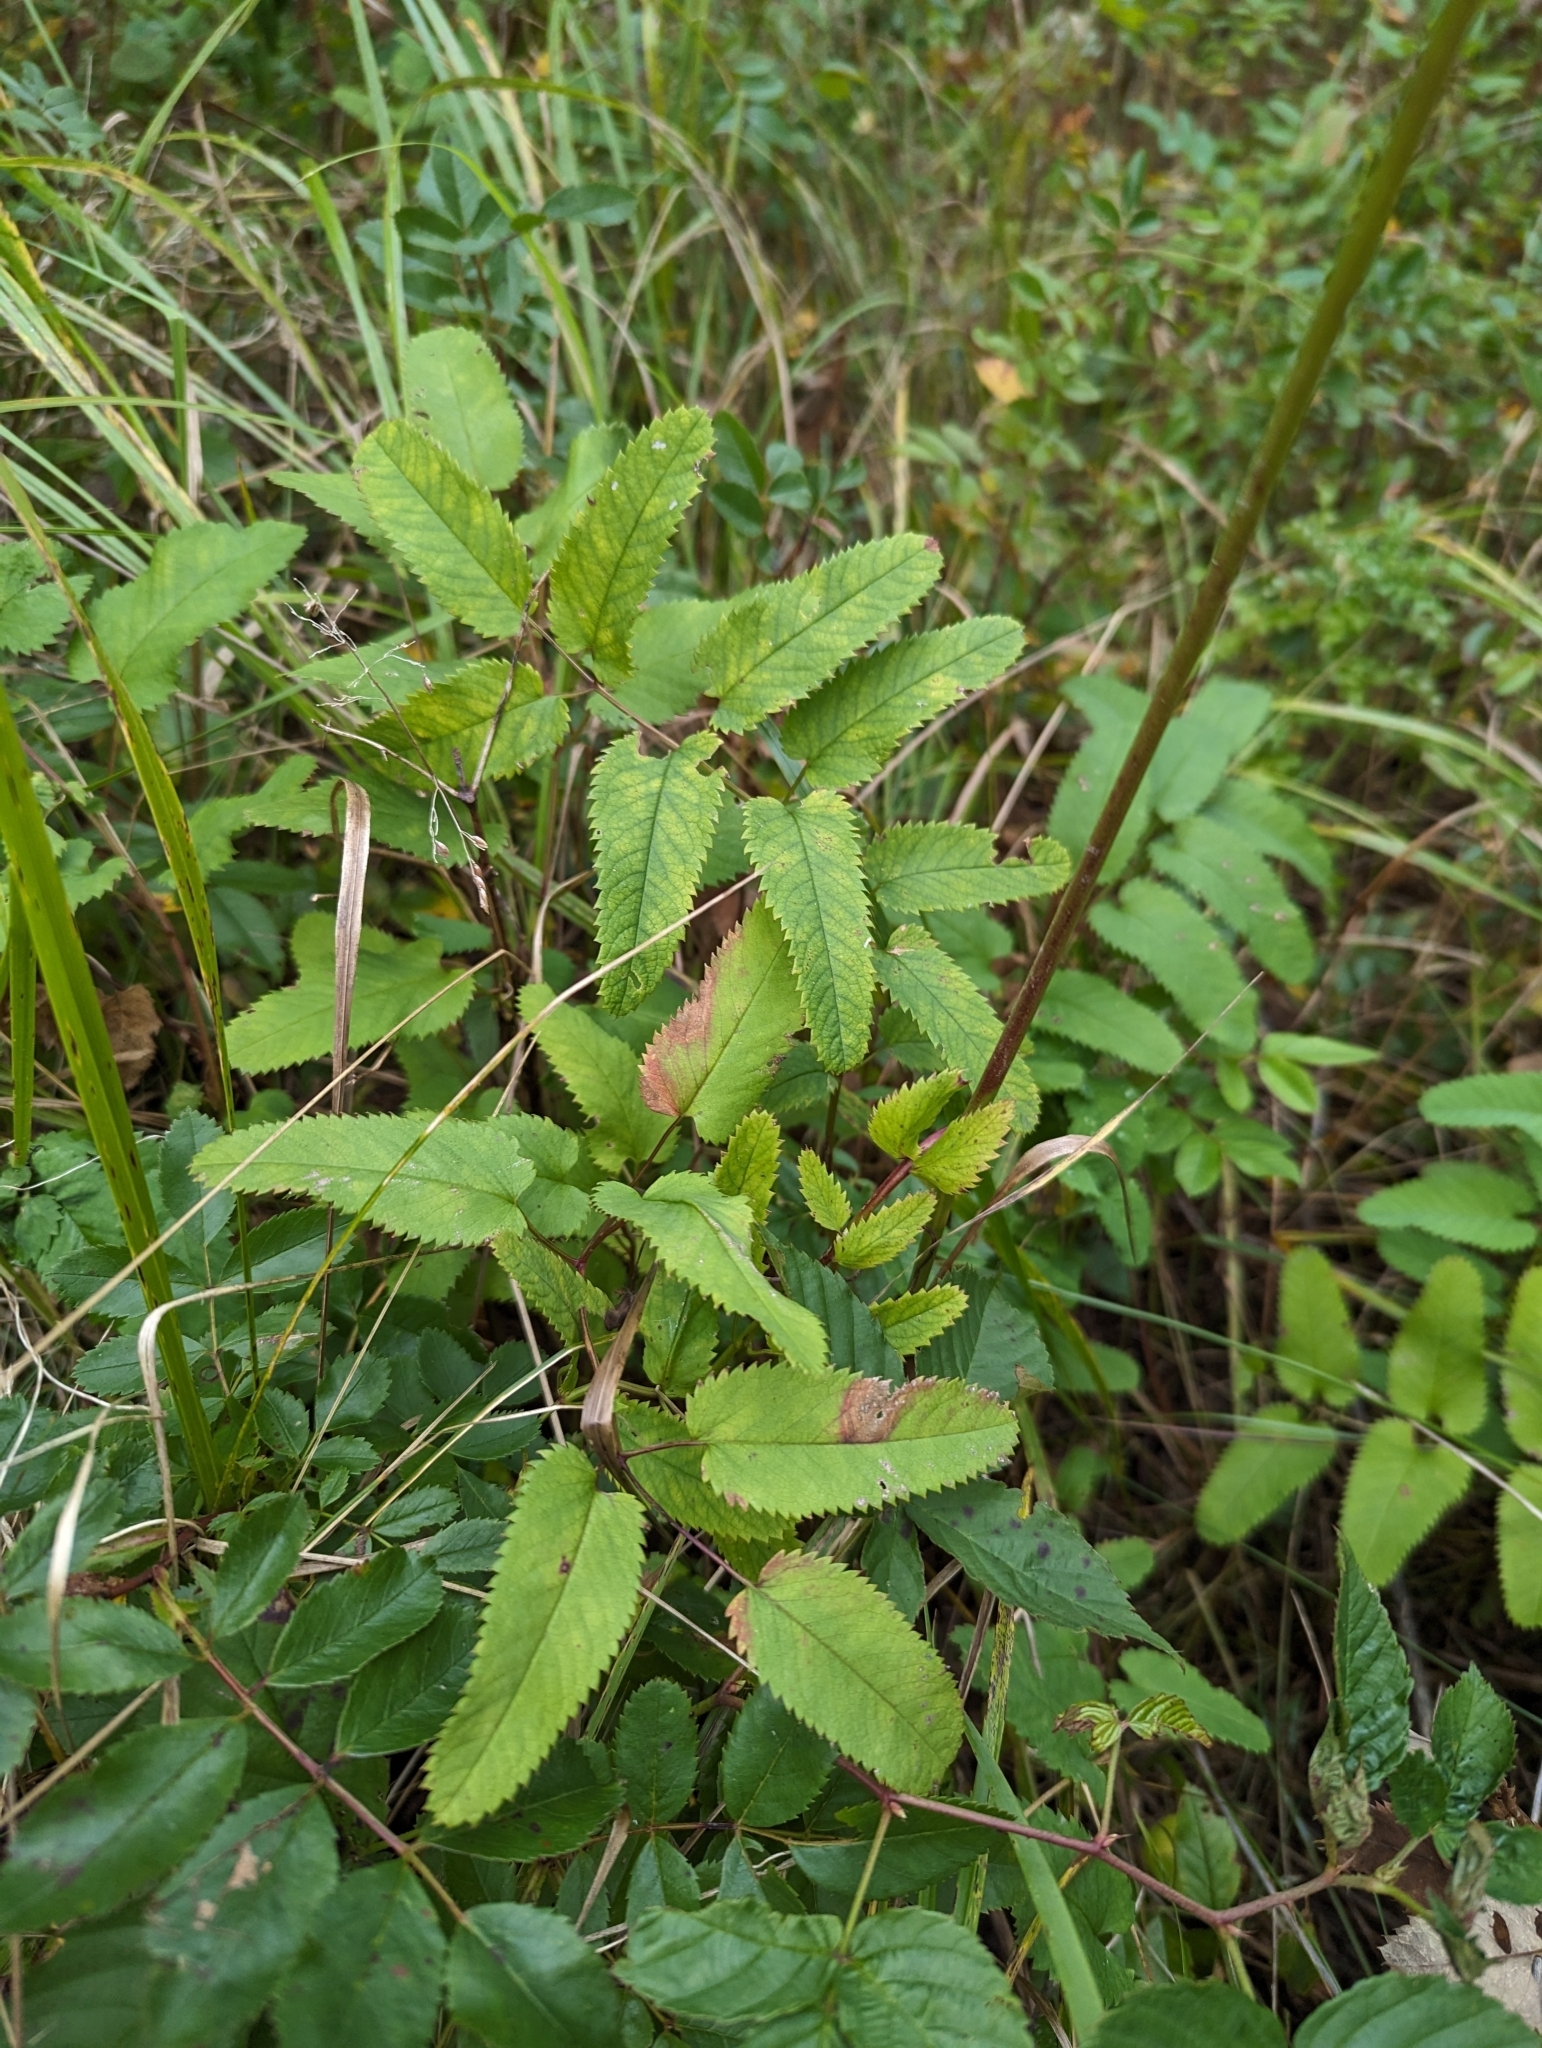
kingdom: Plantae
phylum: Tracheophyta
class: Magnoliopsida
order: Rosales
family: Rosaceae
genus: Sanguisorba
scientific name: Sanguisorba canadensis
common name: White burnet
